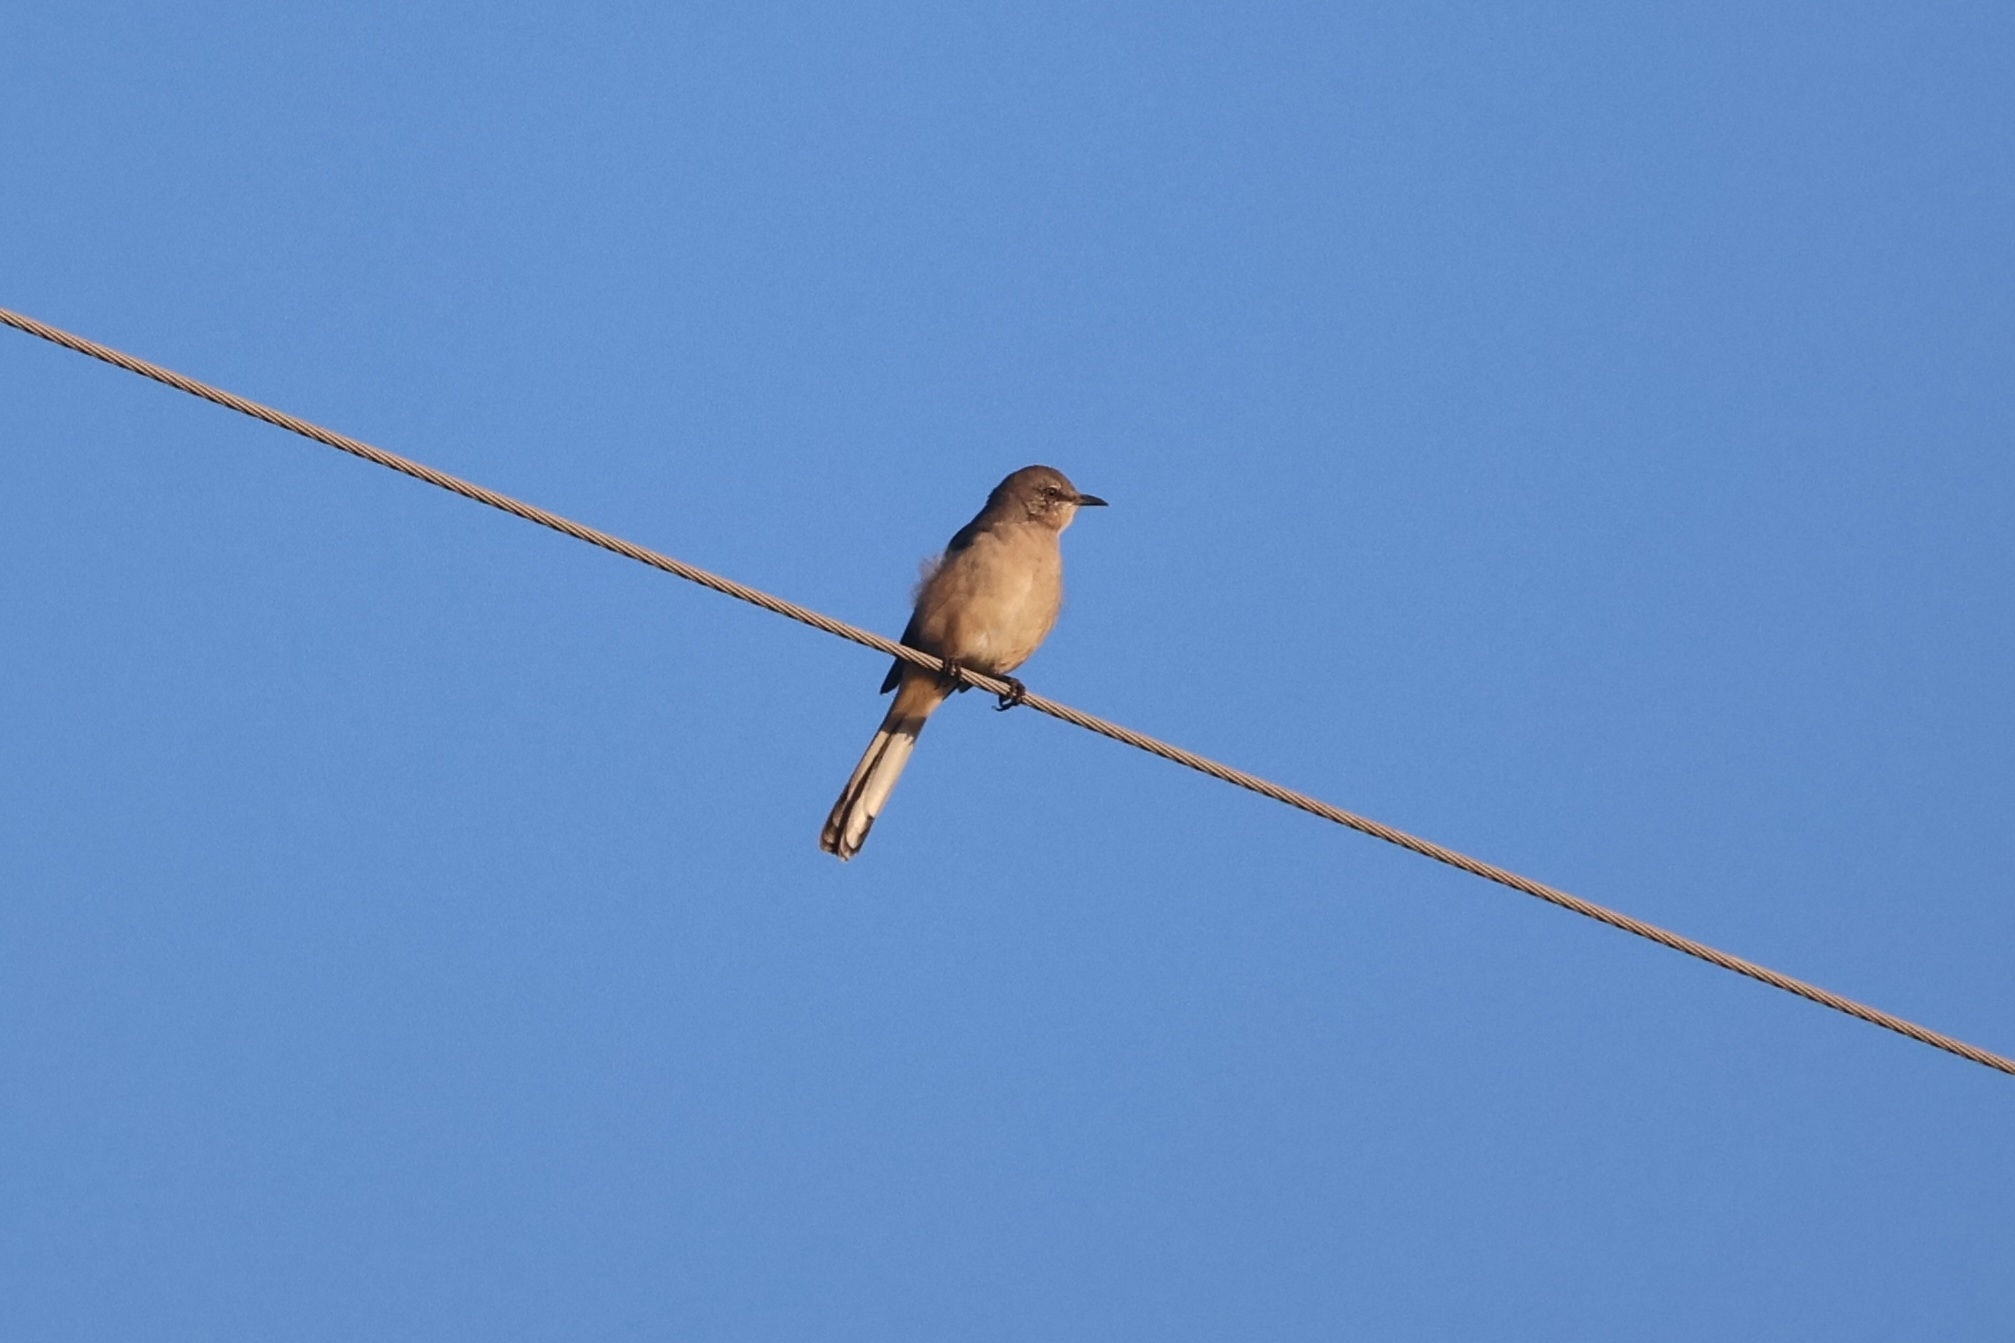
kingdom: Animalia
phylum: Chordata
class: Aves
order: Passeriformes
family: Mimidae
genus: Mimus
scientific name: Mimus polyglottos
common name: Northern mockingbird
